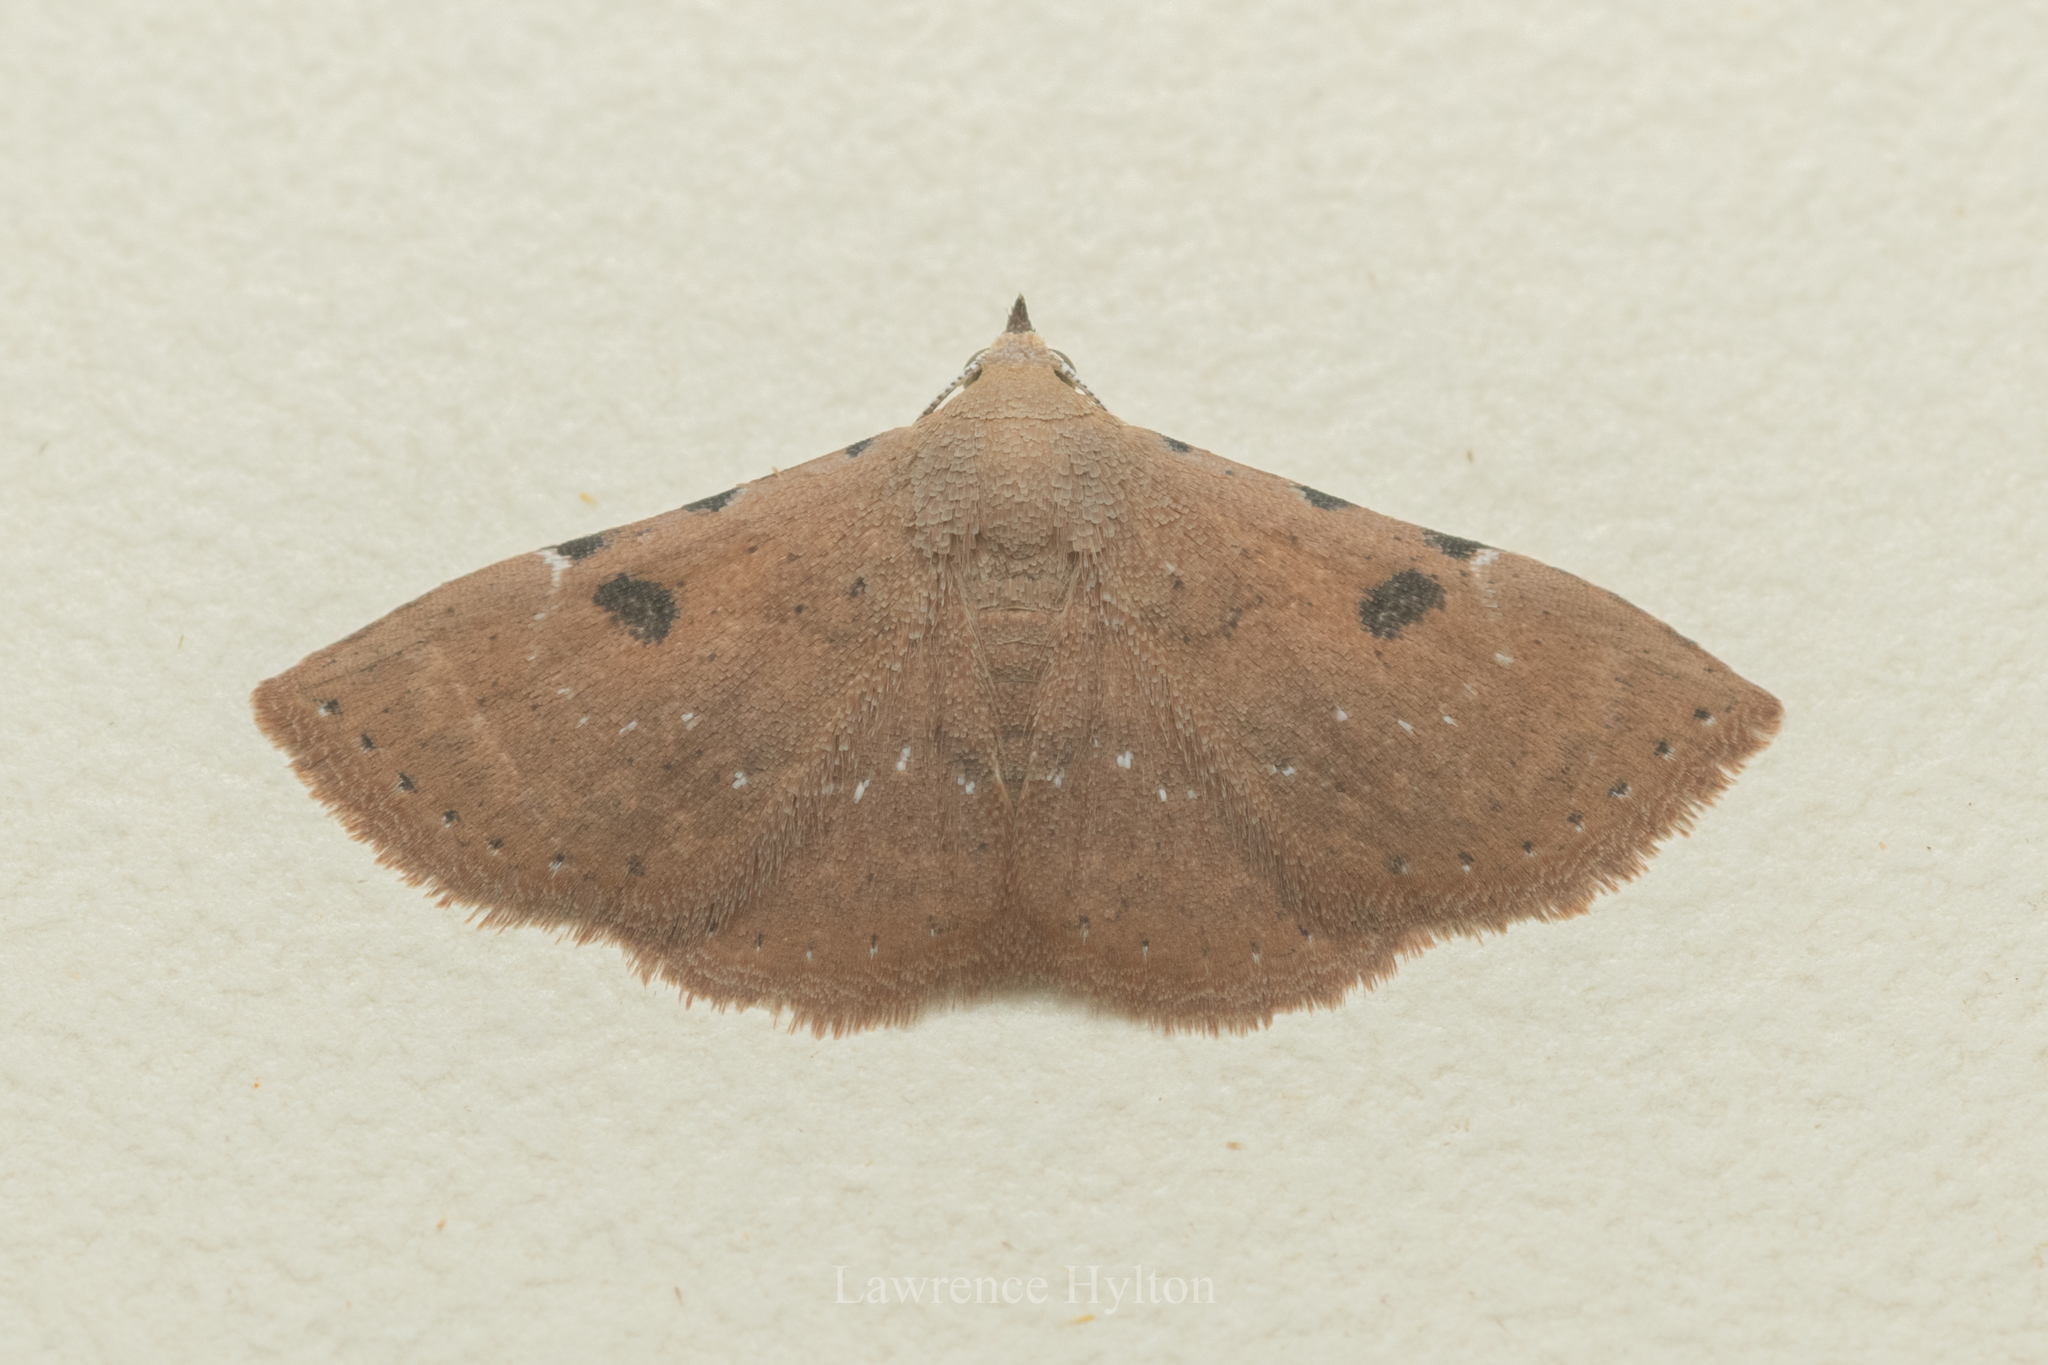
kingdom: Animalia
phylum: Arthropoda
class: Insecta
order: Lepidoptera
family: Erebidae
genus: Corgatha
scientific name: Corgatha trichogyia
